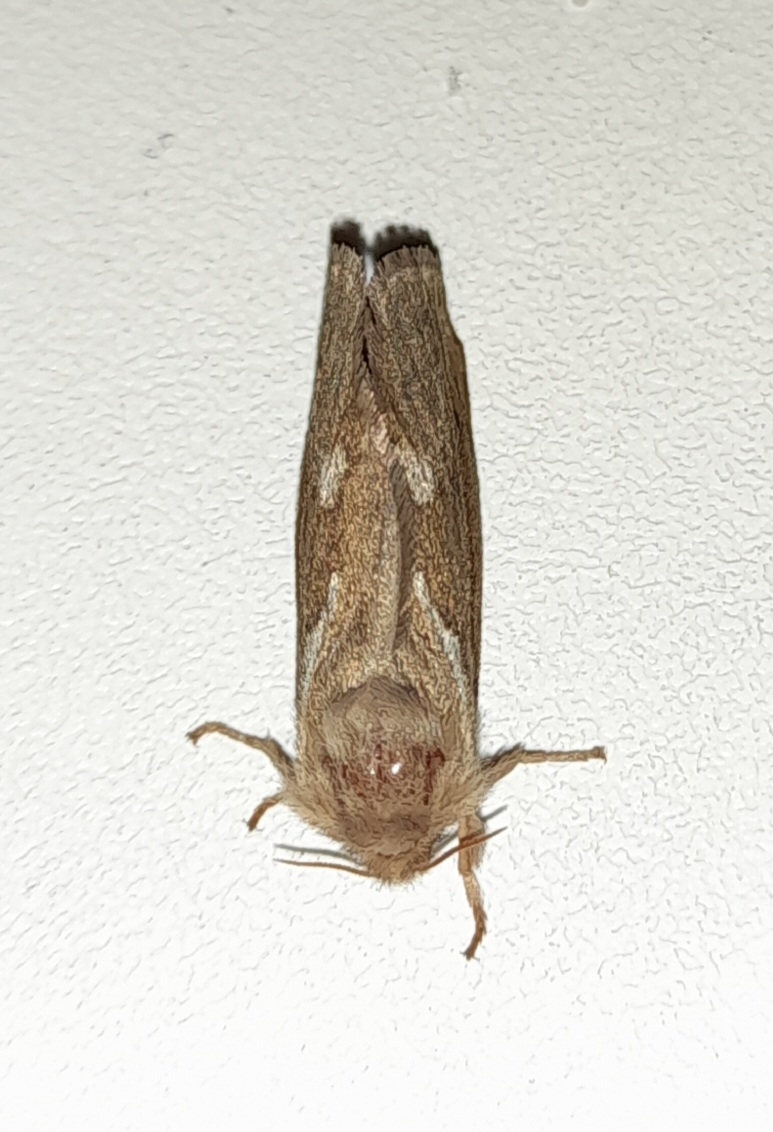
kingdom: Animalia
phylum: Arthropoda
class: Insecta
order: Lepidoptera
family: Hepialidae
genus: Korscheltellus
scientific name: Korscheltellus lupulina
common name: Common swift
